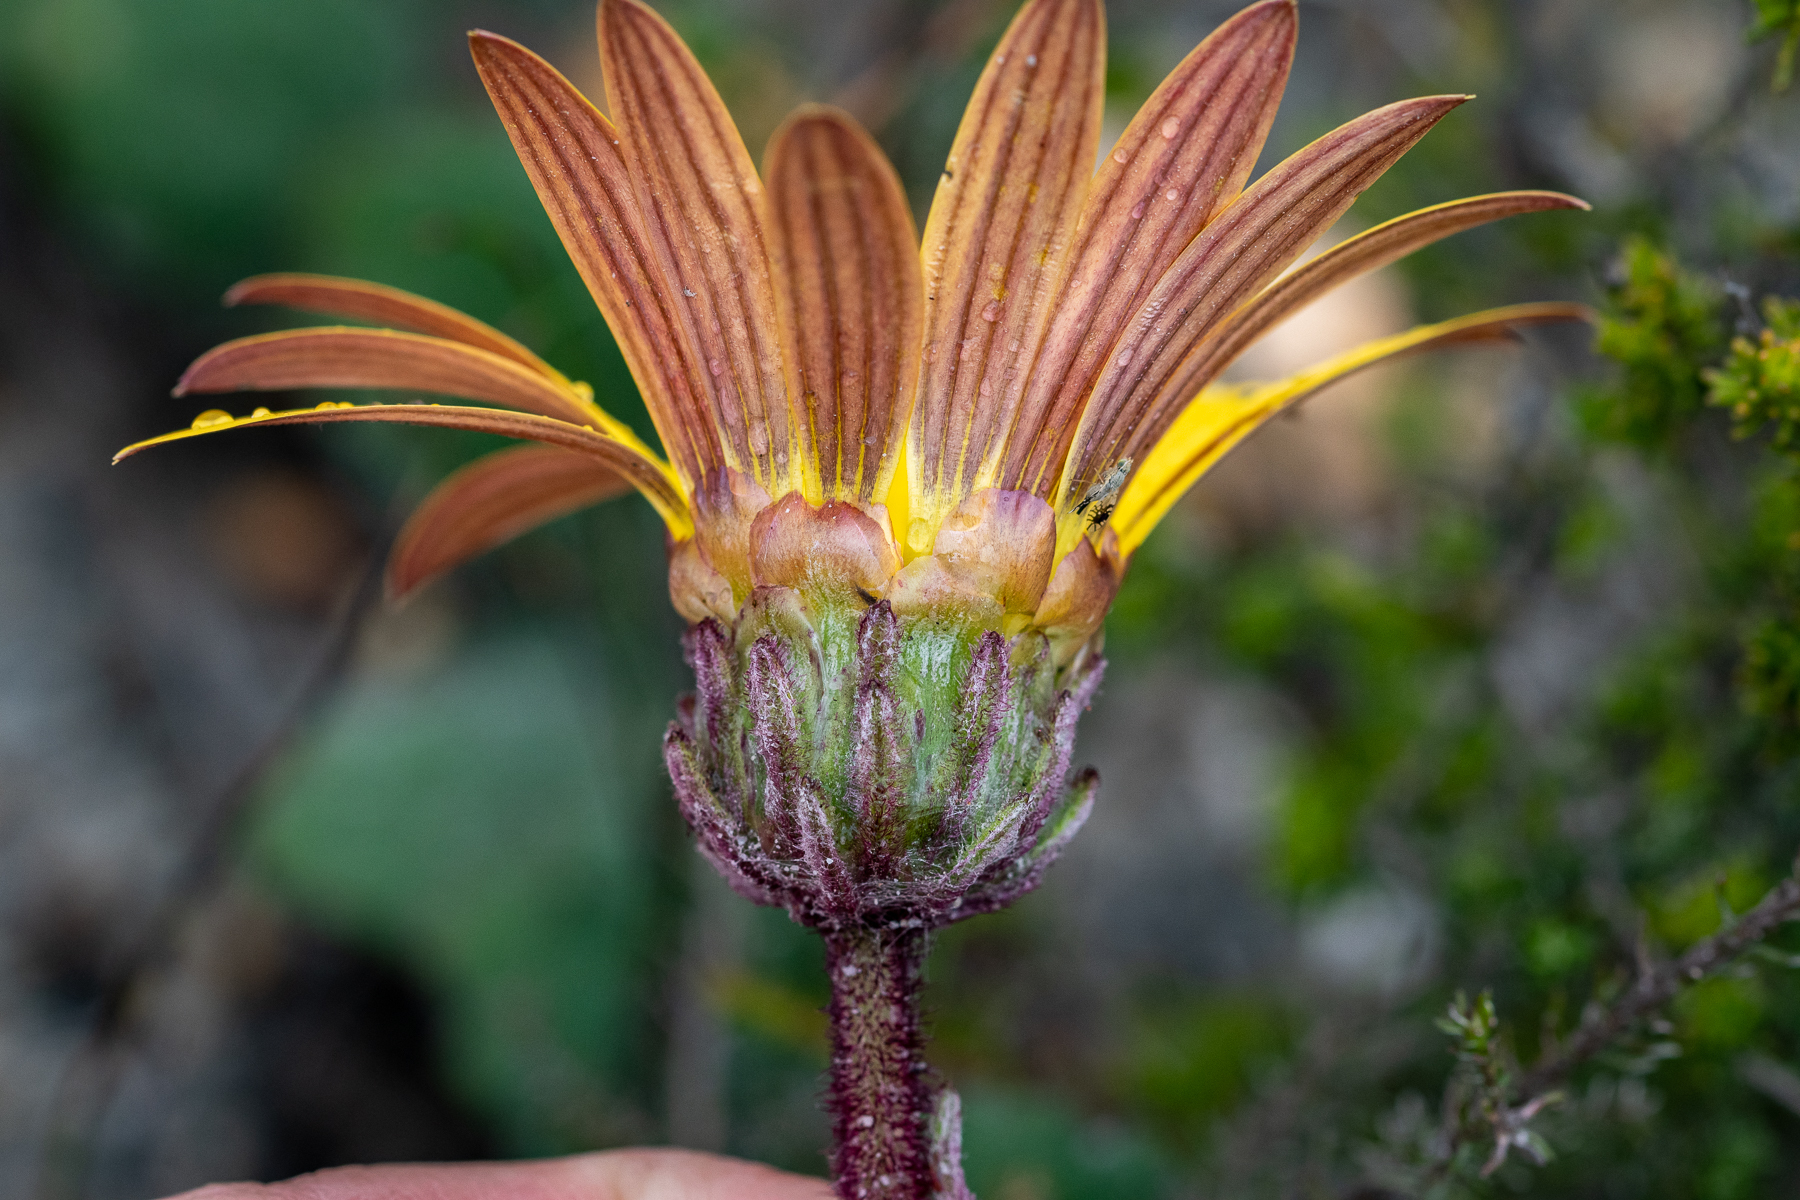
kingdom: Plantae
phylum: Tracheophyta
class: Magnoliopsida
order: Asterales
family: Asteraceae
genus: Arctotis
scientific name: Arctotis angustifolia
